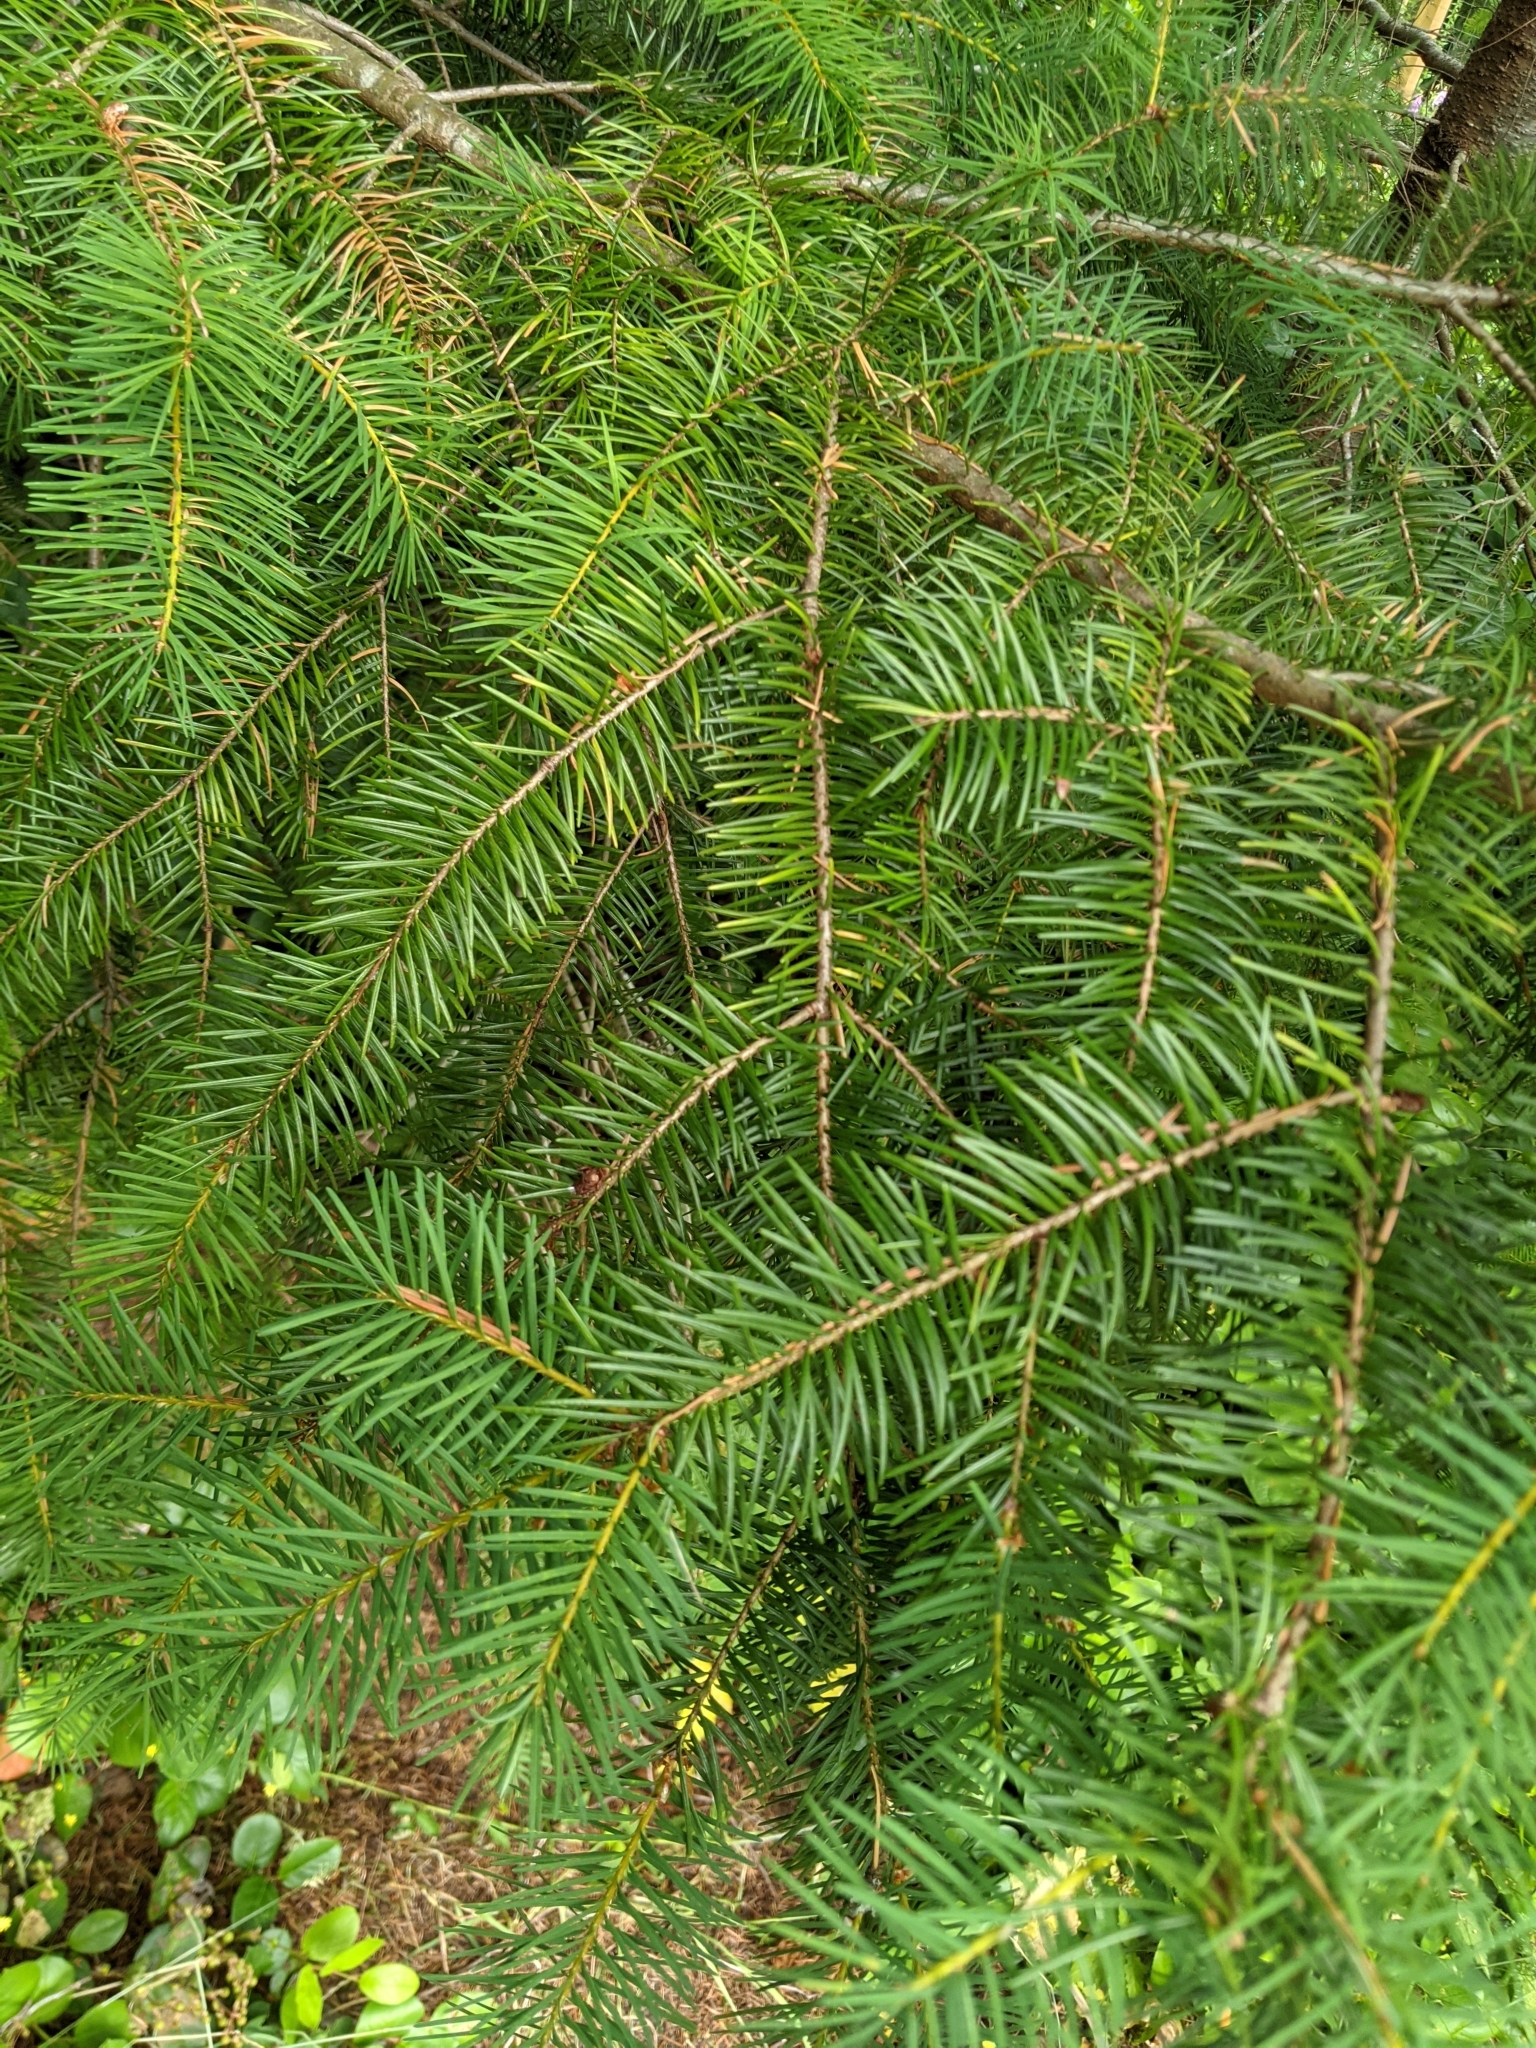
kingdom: Plantae
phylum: Tracheophyta
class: Pinopsida
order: Pinales
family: Pinaceae
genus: Pseudotsuga
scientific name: Pseudotsuga menziesii
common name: Douglas fir
